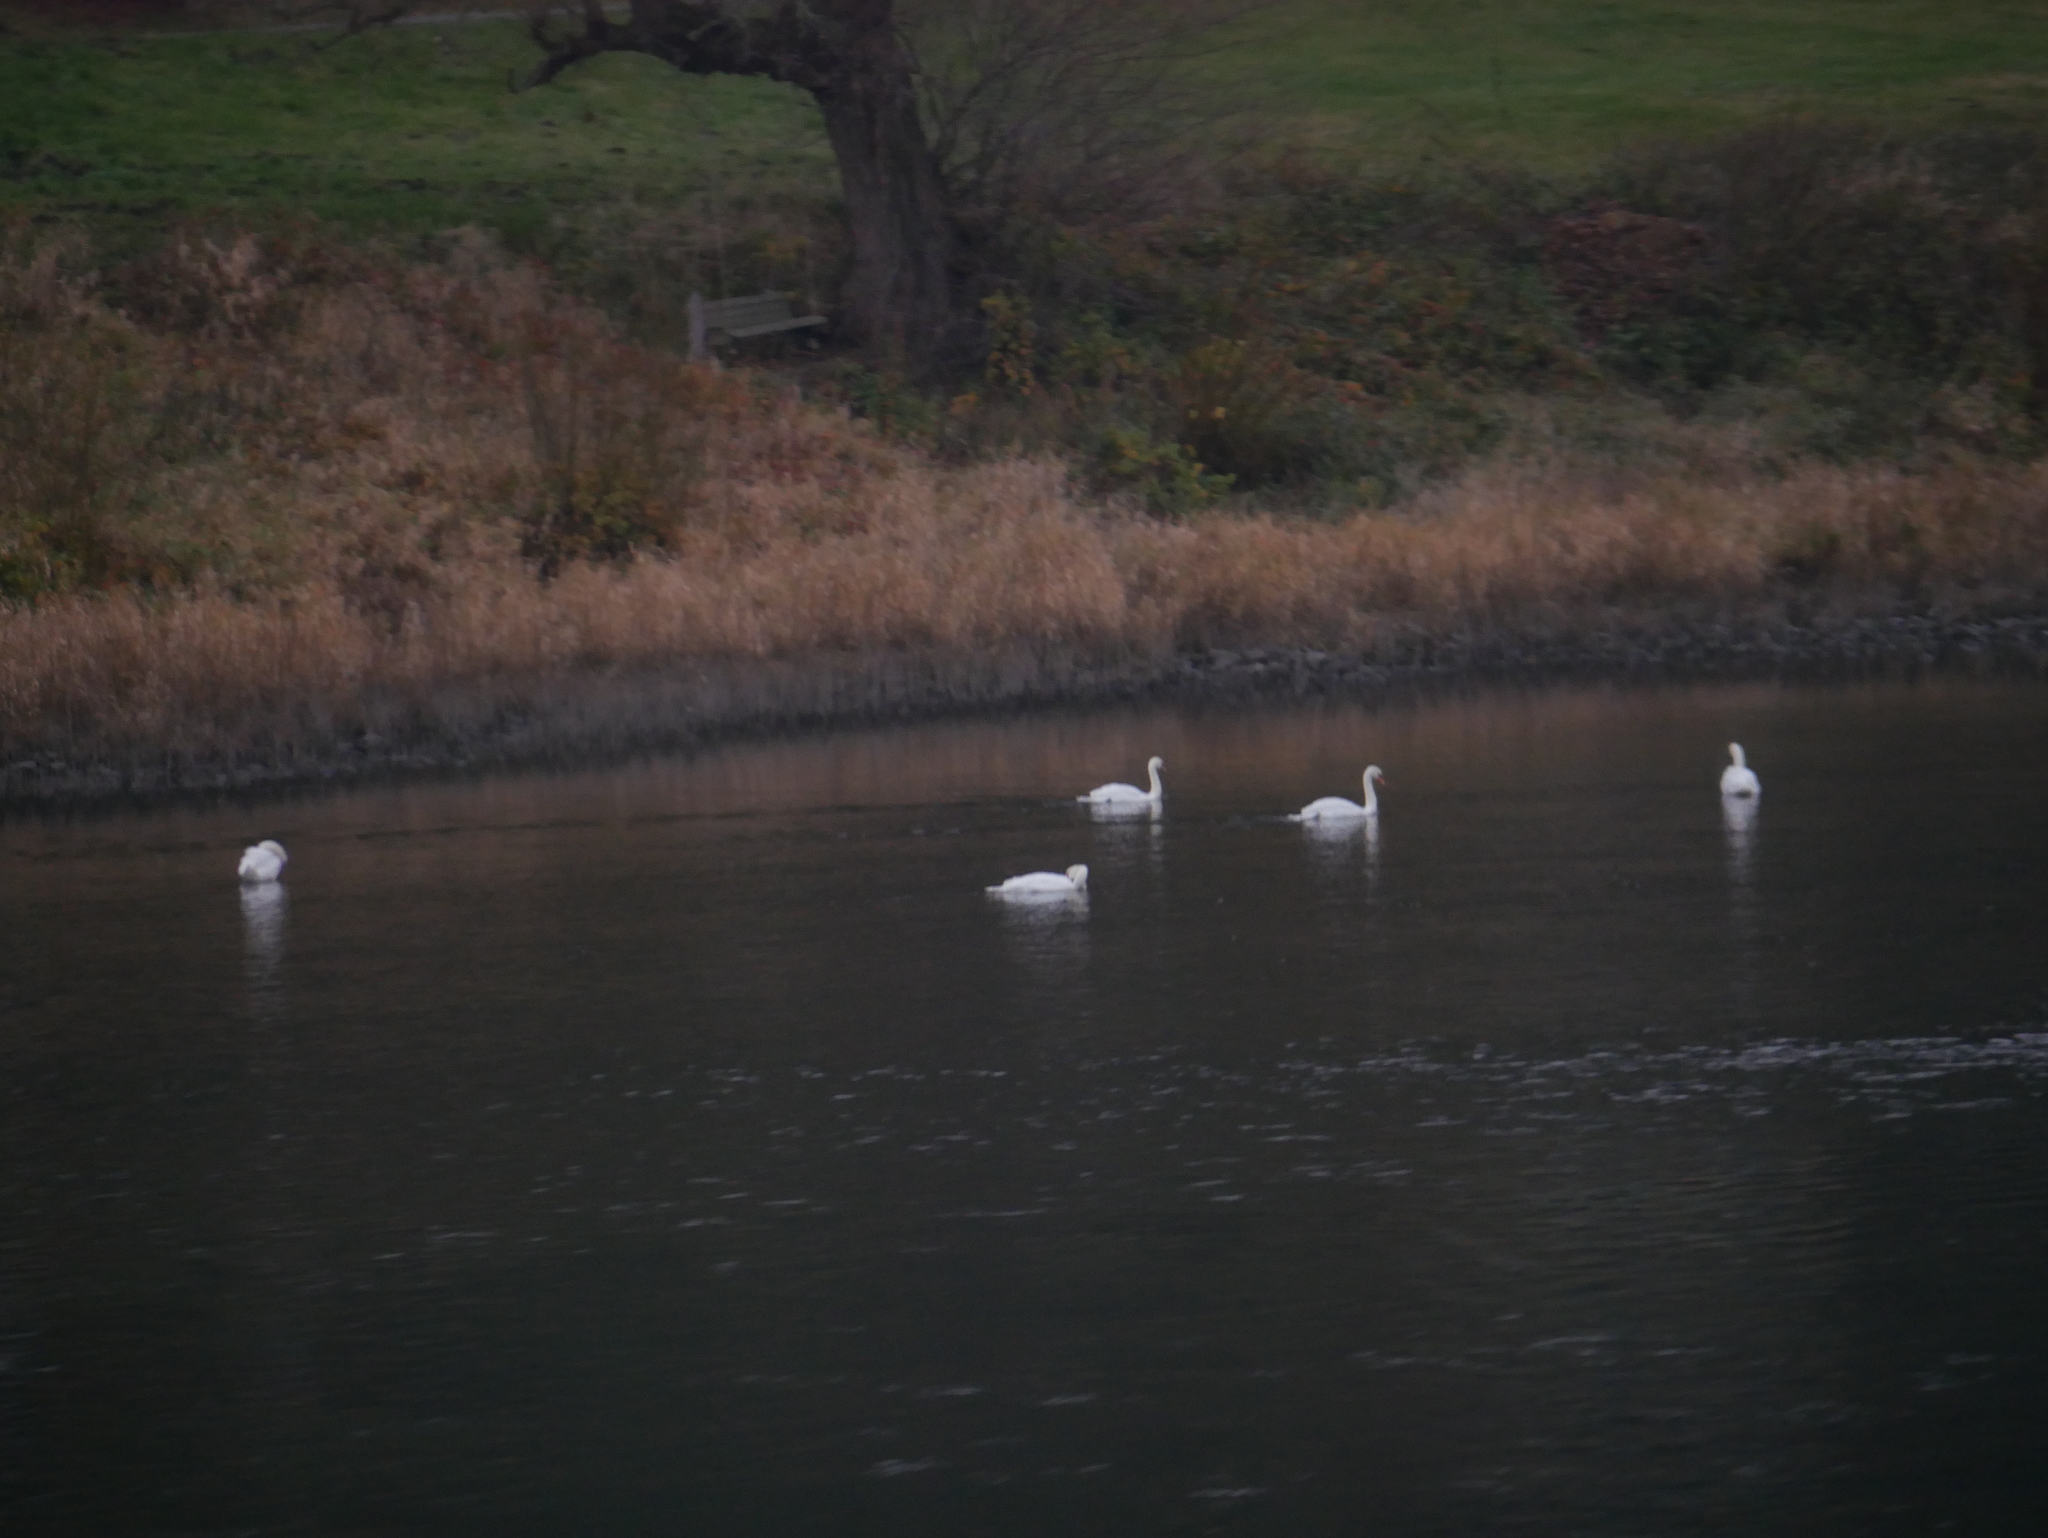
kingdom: Animalia
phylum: Chordata
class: Aves
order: Anseriformes
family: Anatidae
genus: Cygnus
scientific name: Cygnus olor
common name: Mute swan
